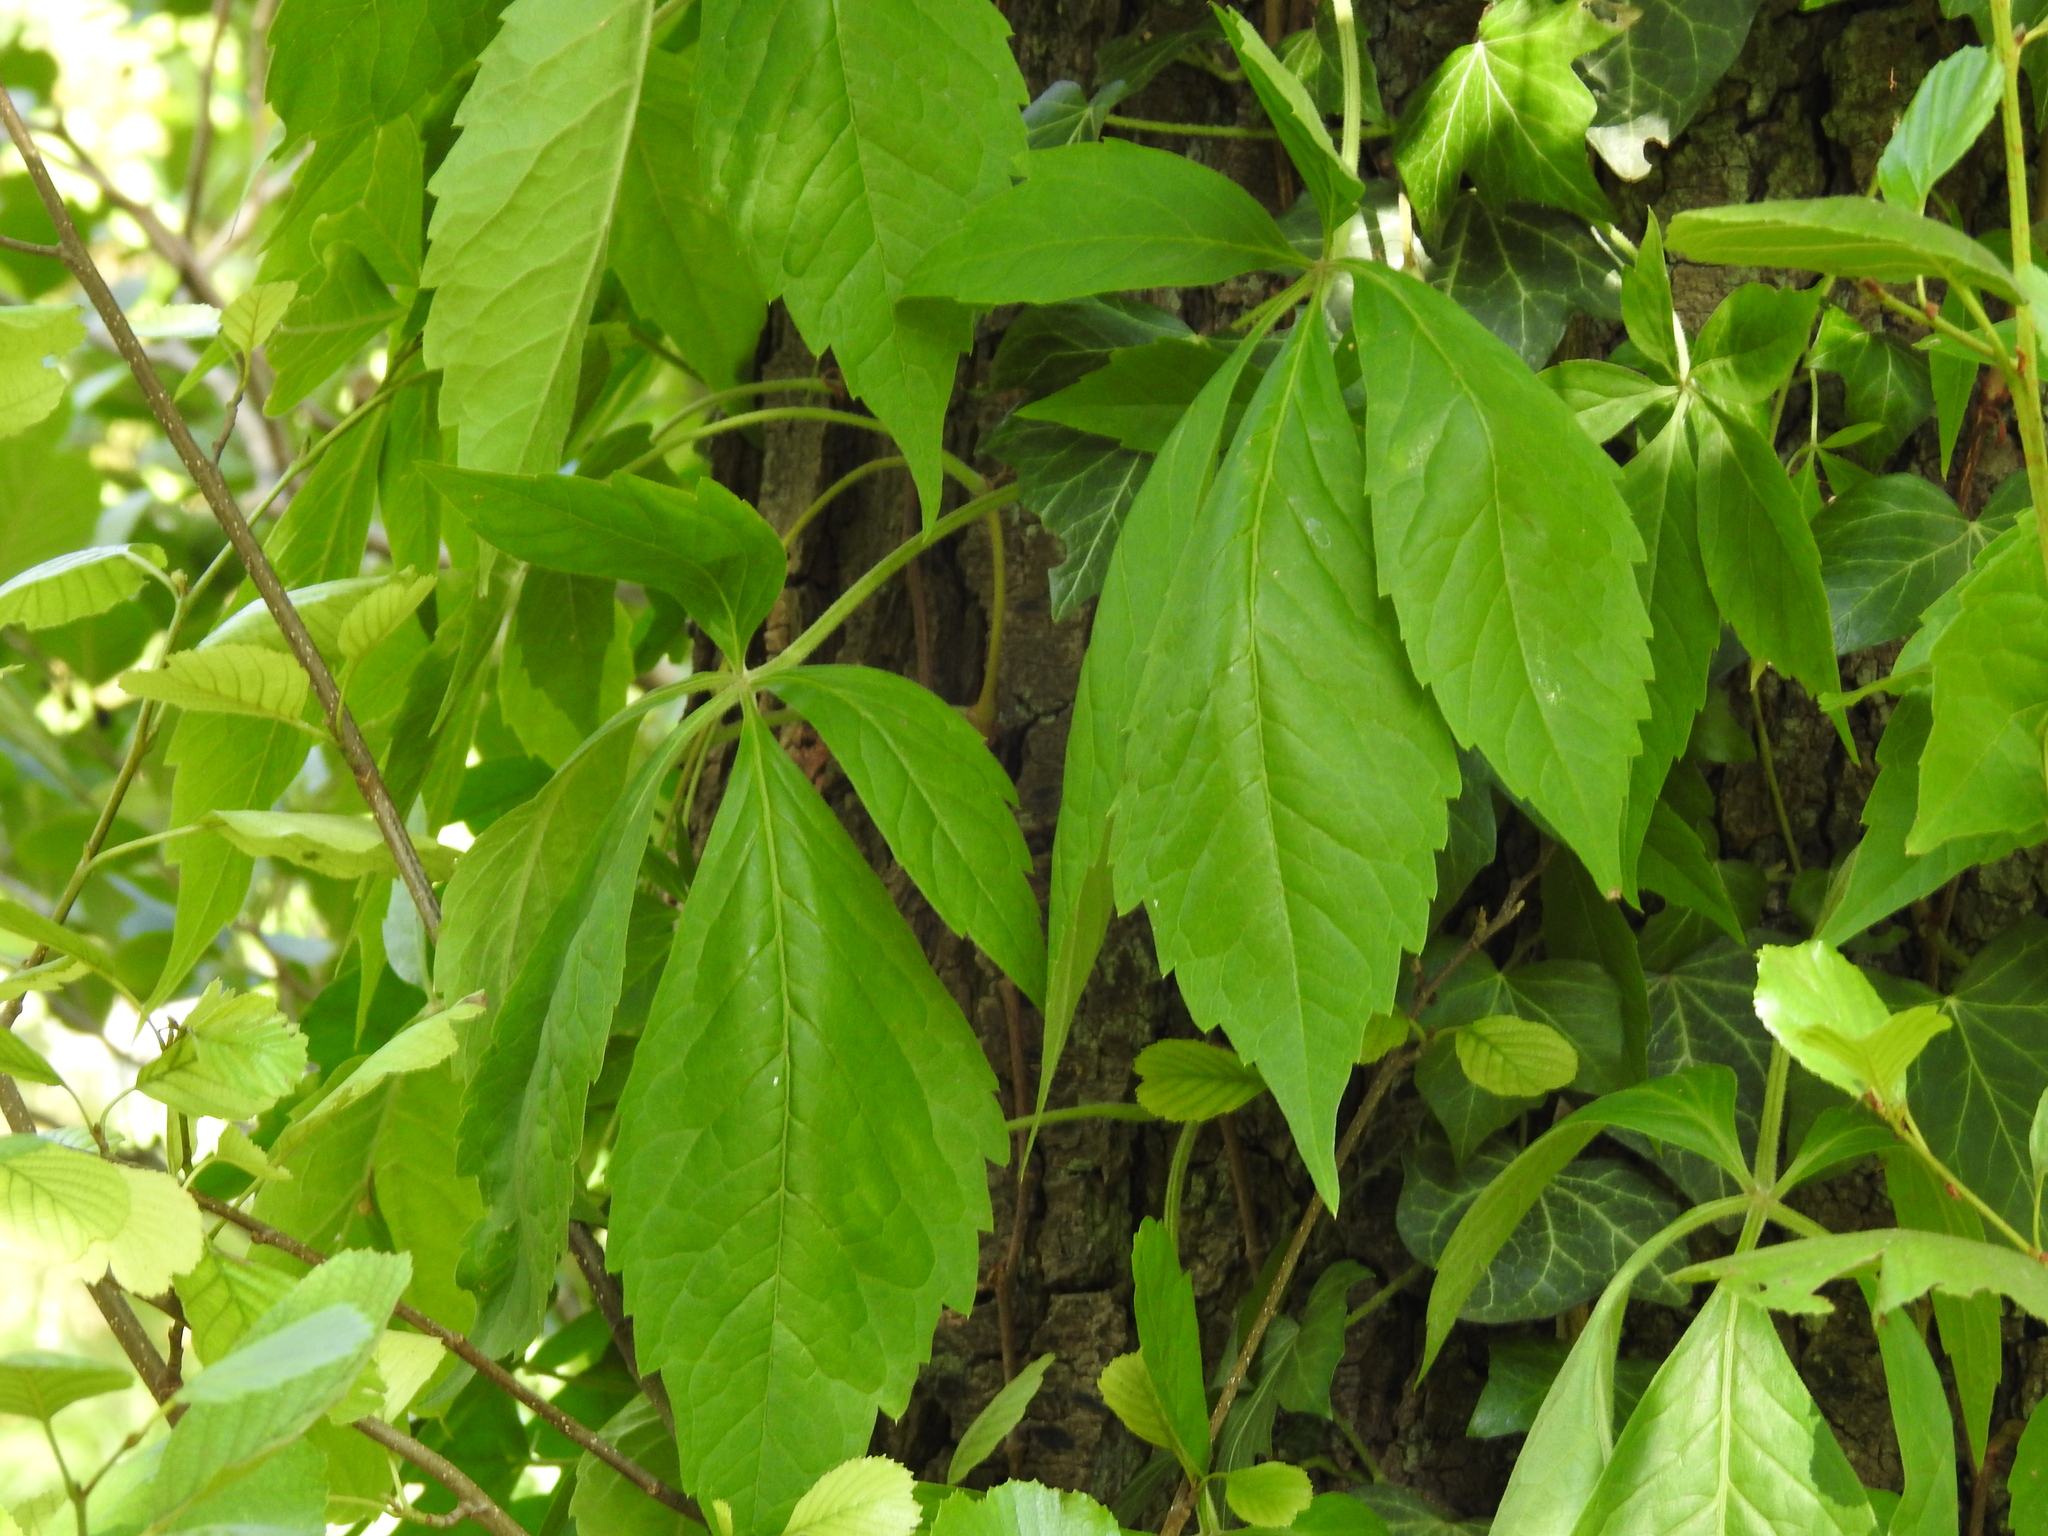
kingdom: Plantae
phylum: Tracheophyta
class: Magnoliopsida
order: Vitales
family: Vitaceae
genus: Parthenocissus
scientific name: Parthenocissus quinquefolia
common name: Virginia-creeper
